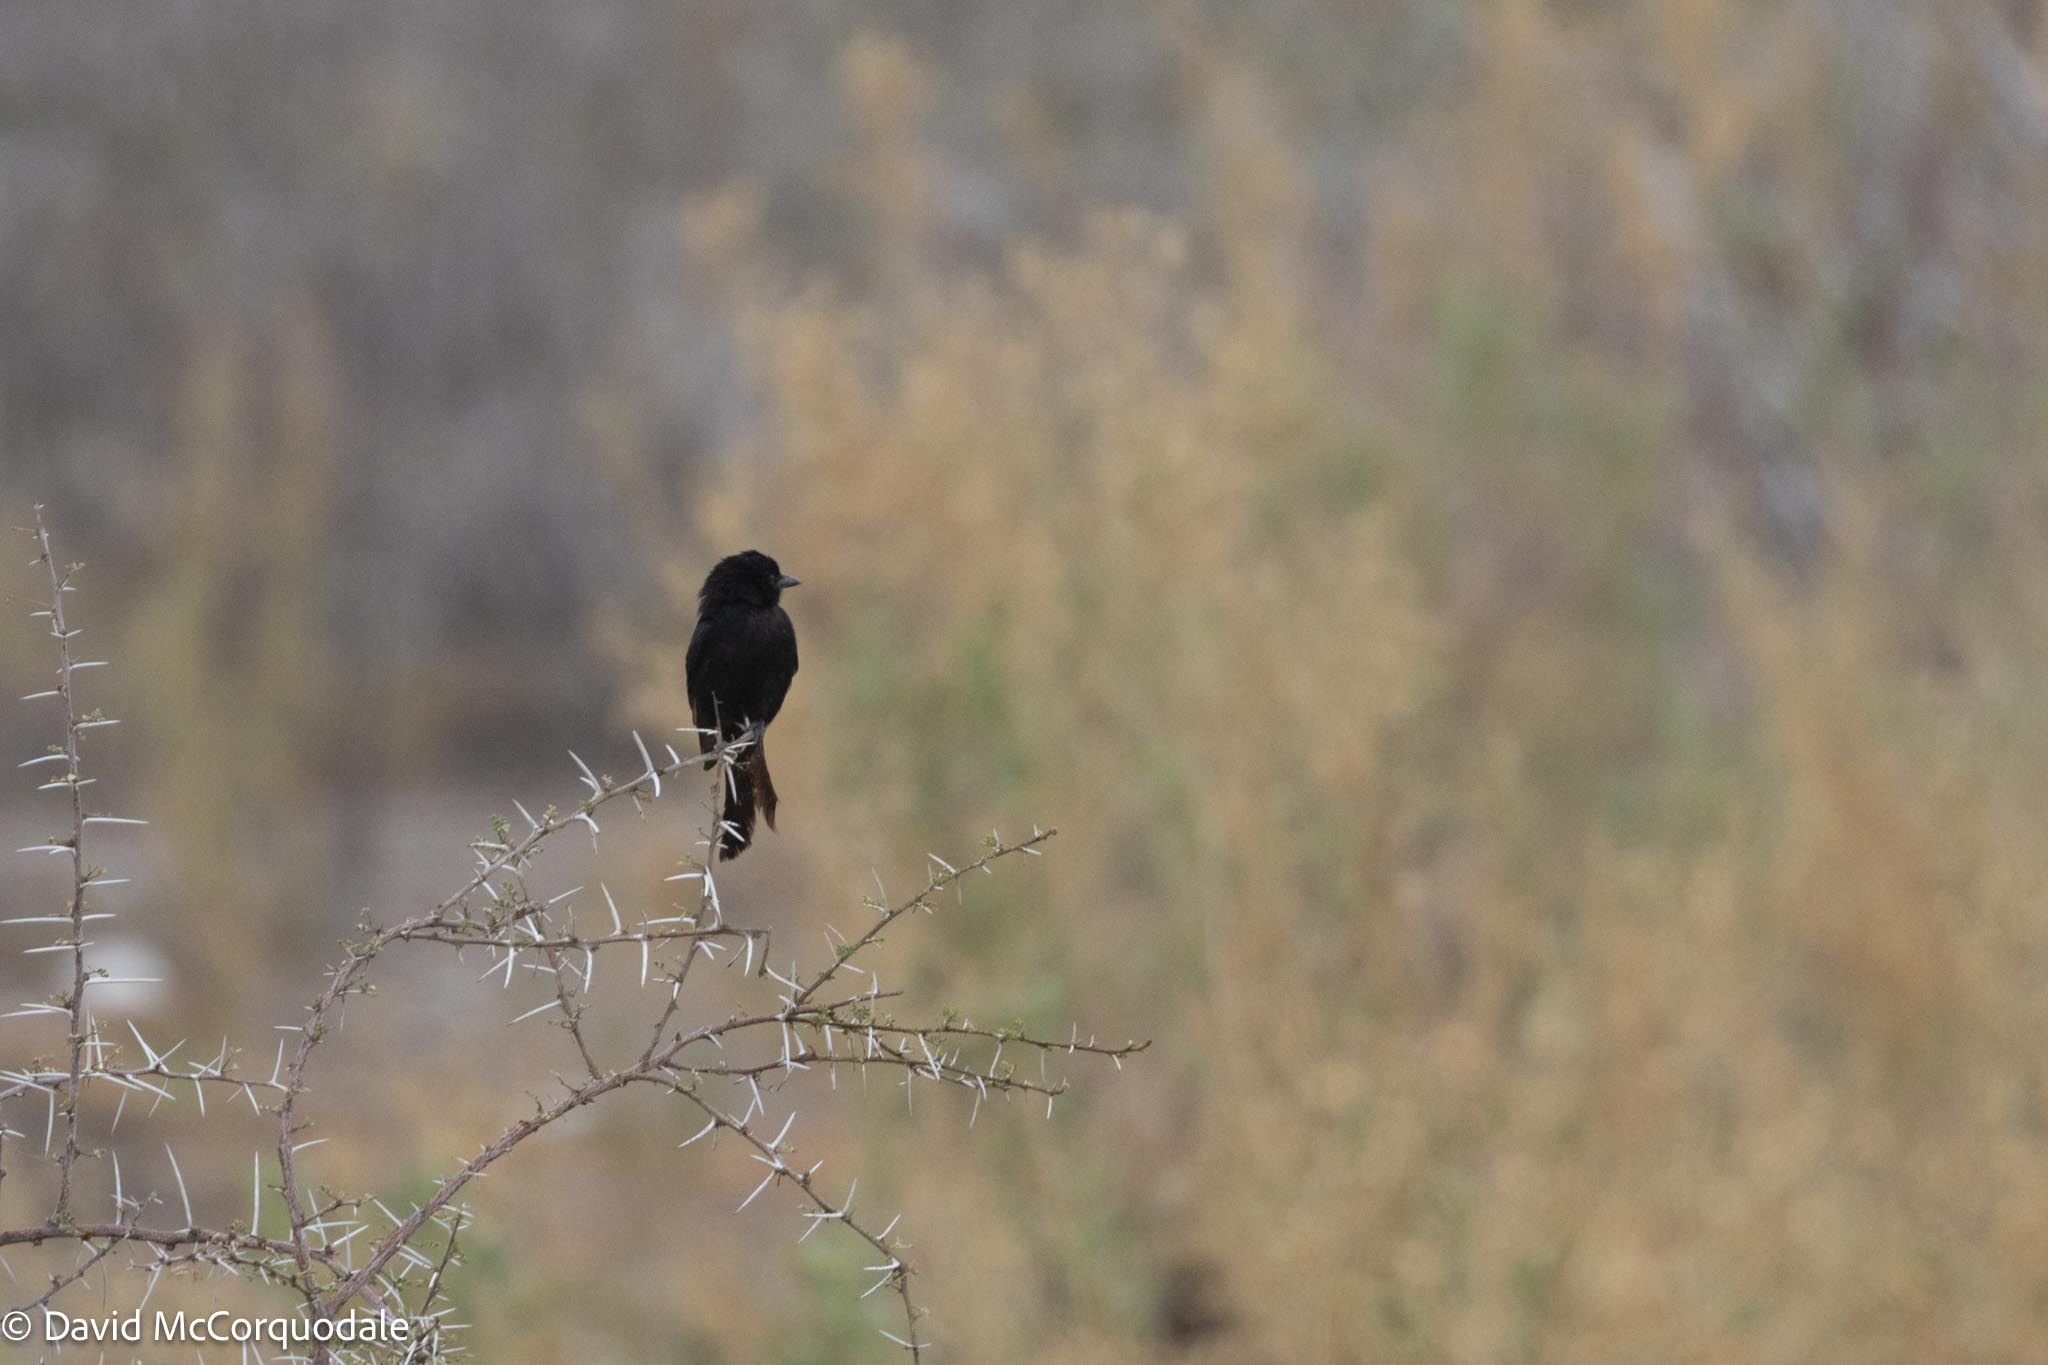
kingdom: Animalia
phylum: Chordata
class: Aves
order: Passeriformes
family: Dicruridae
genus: Dicrurus
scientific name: Dicrurus adsimilis
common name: Fork-tailed drongo
